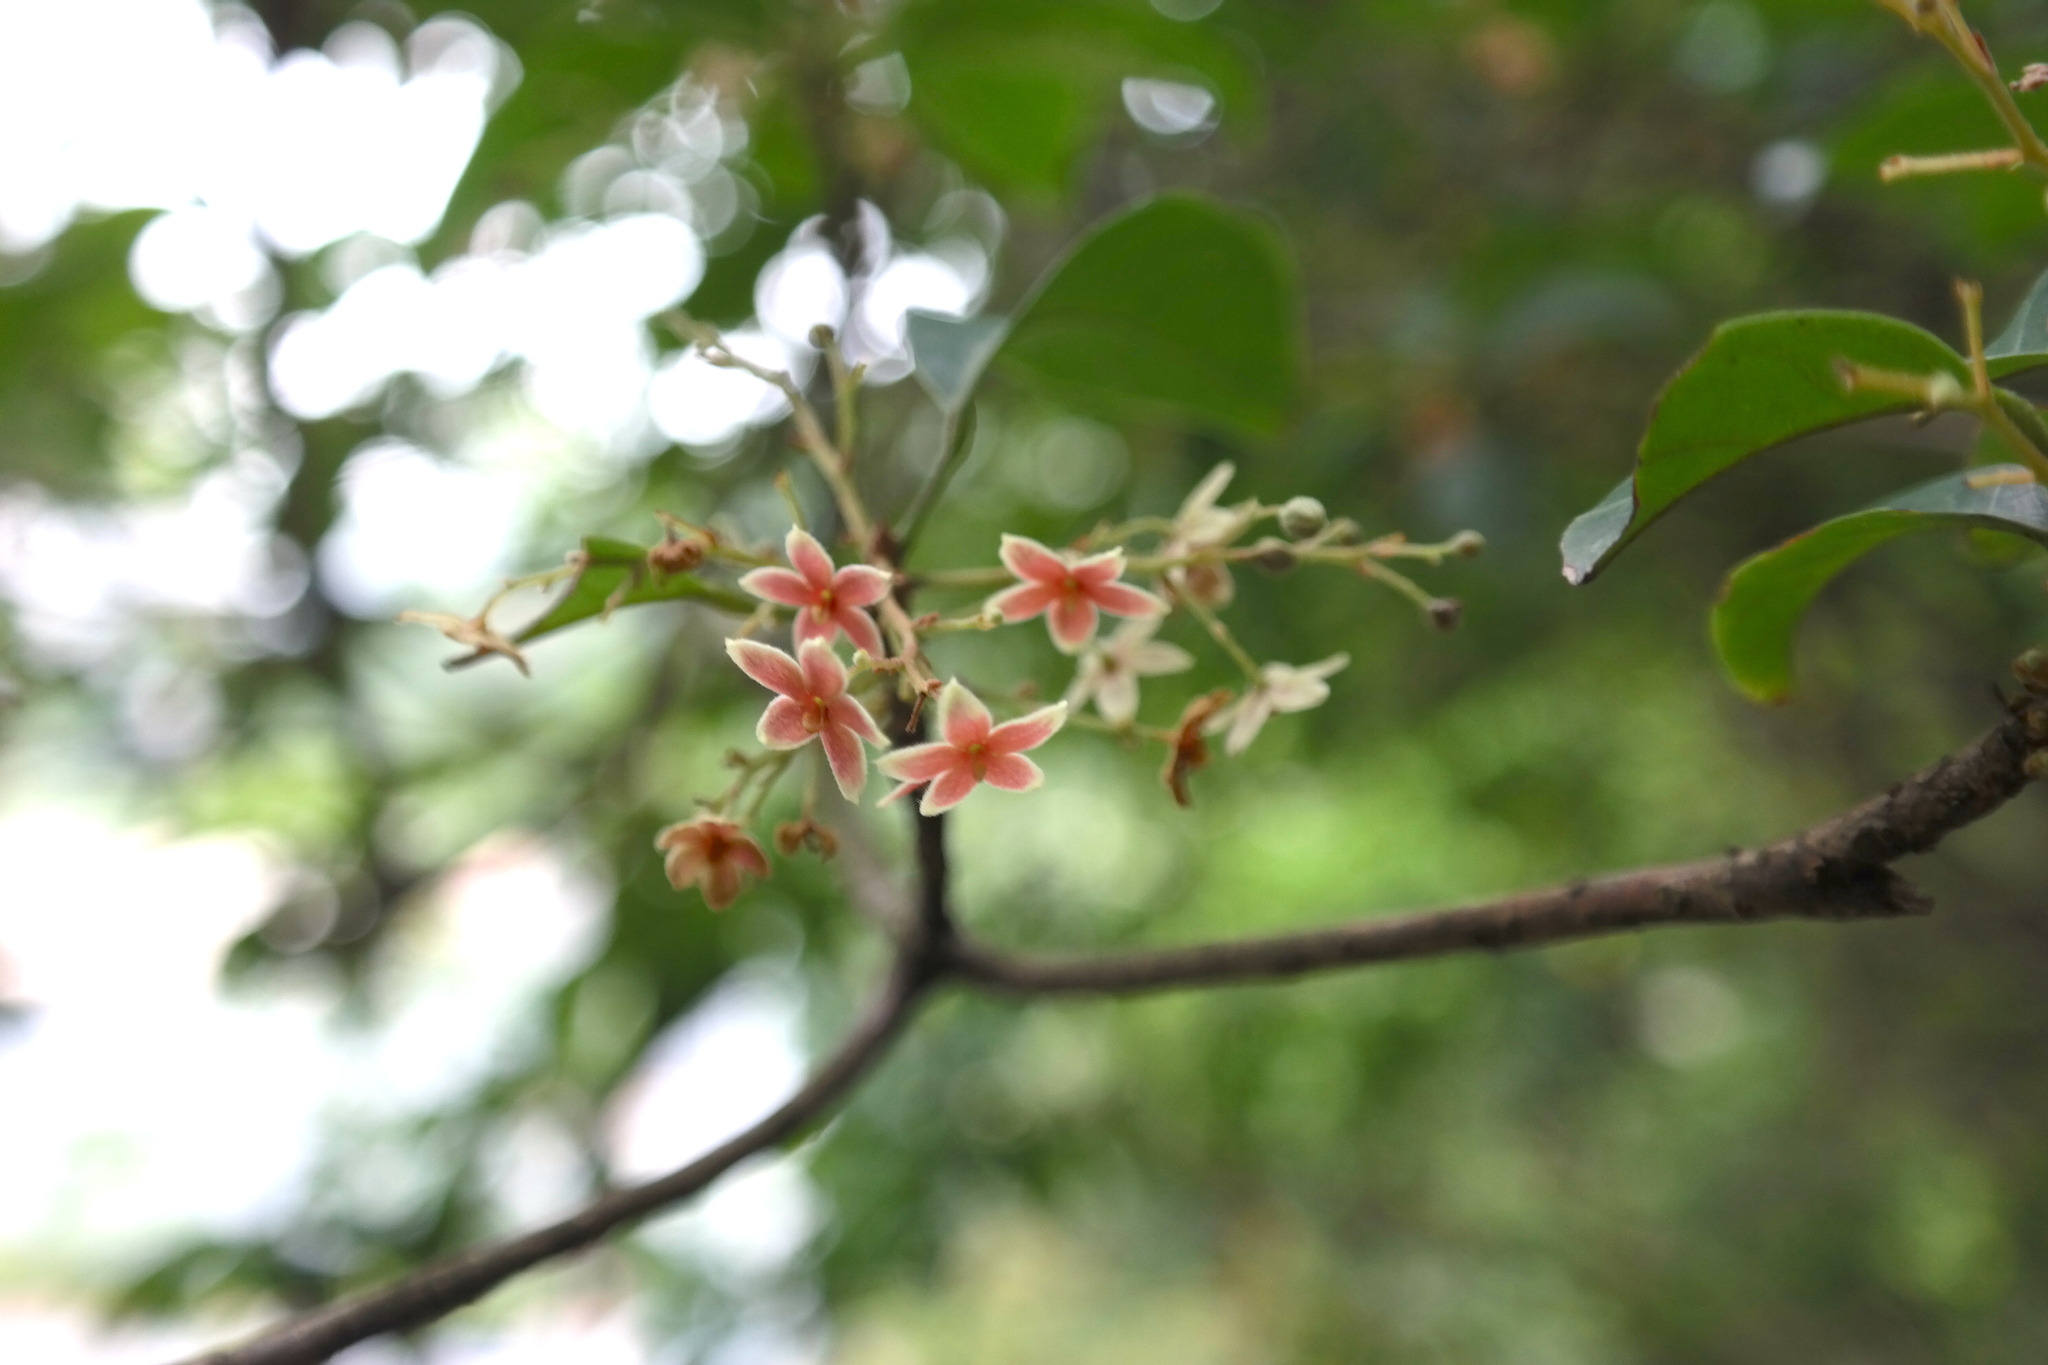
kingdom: Plantae
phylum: Tracheophyta
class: Magnoliopsida
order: Malvales
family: Malvaceae
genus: Sterculia
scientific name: Sterculia lanceolata
